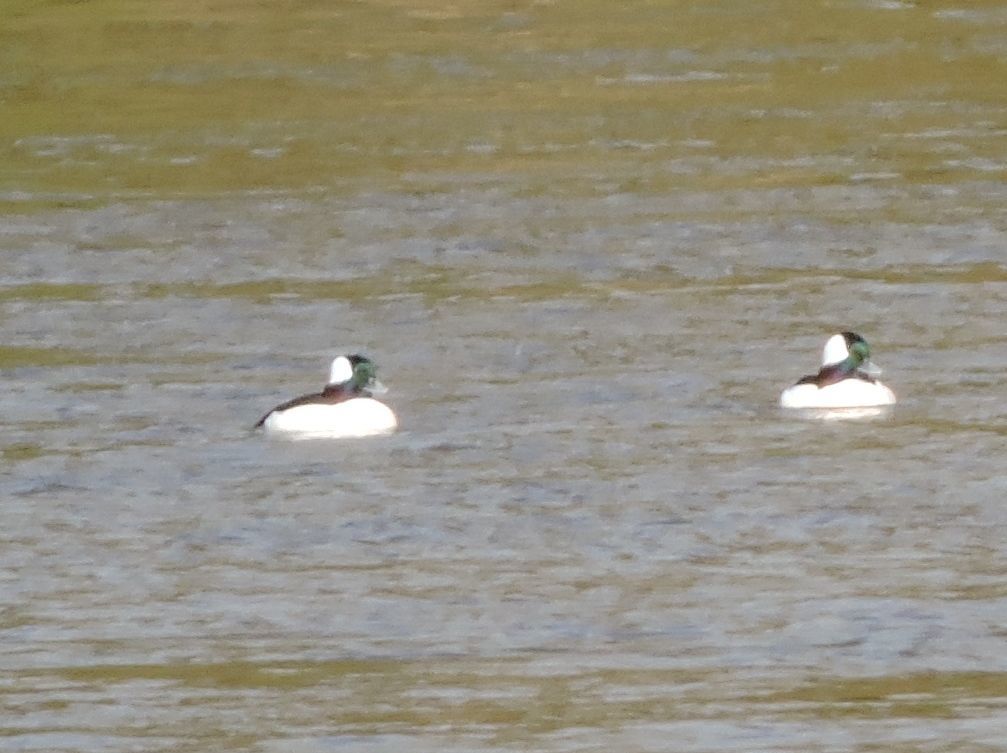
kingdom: Animalia
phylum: Chordata
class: Aves
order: Anseriformes
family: Anatidae
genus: Bucephala
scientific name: Bucephala albeola
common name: Bufflehead
